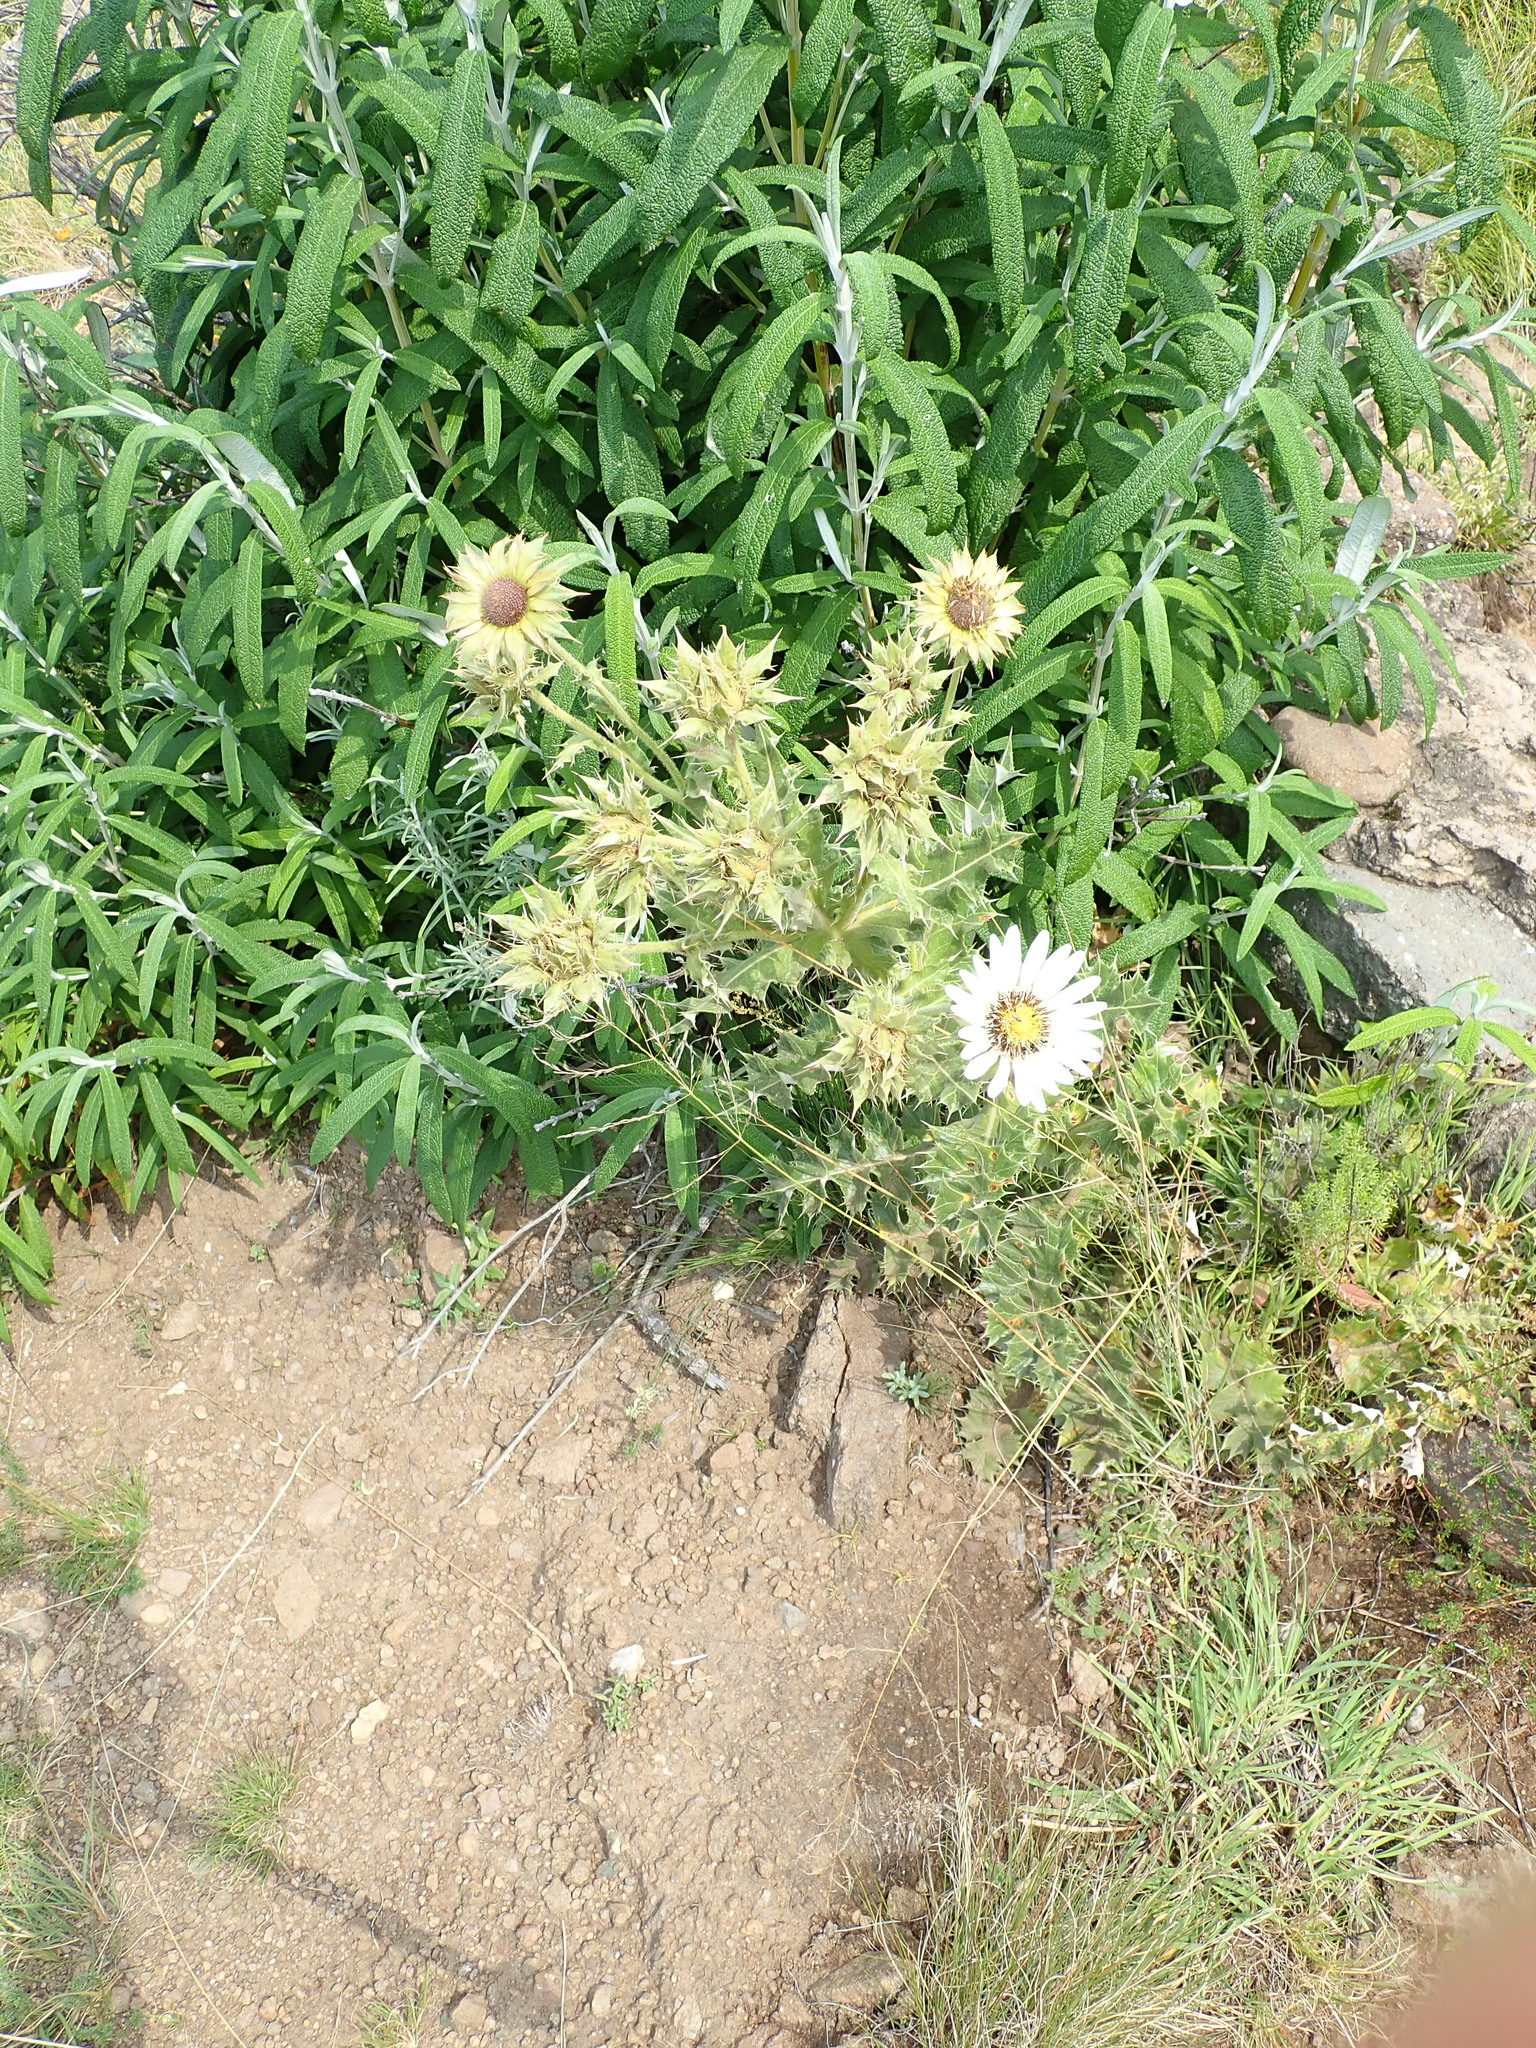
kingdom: Plantae
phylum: Tracheophyta
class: Magnoliopsida
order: Asterales
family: Asteraceae
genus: Berkheya
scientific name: Berkheya cirsiifolia
